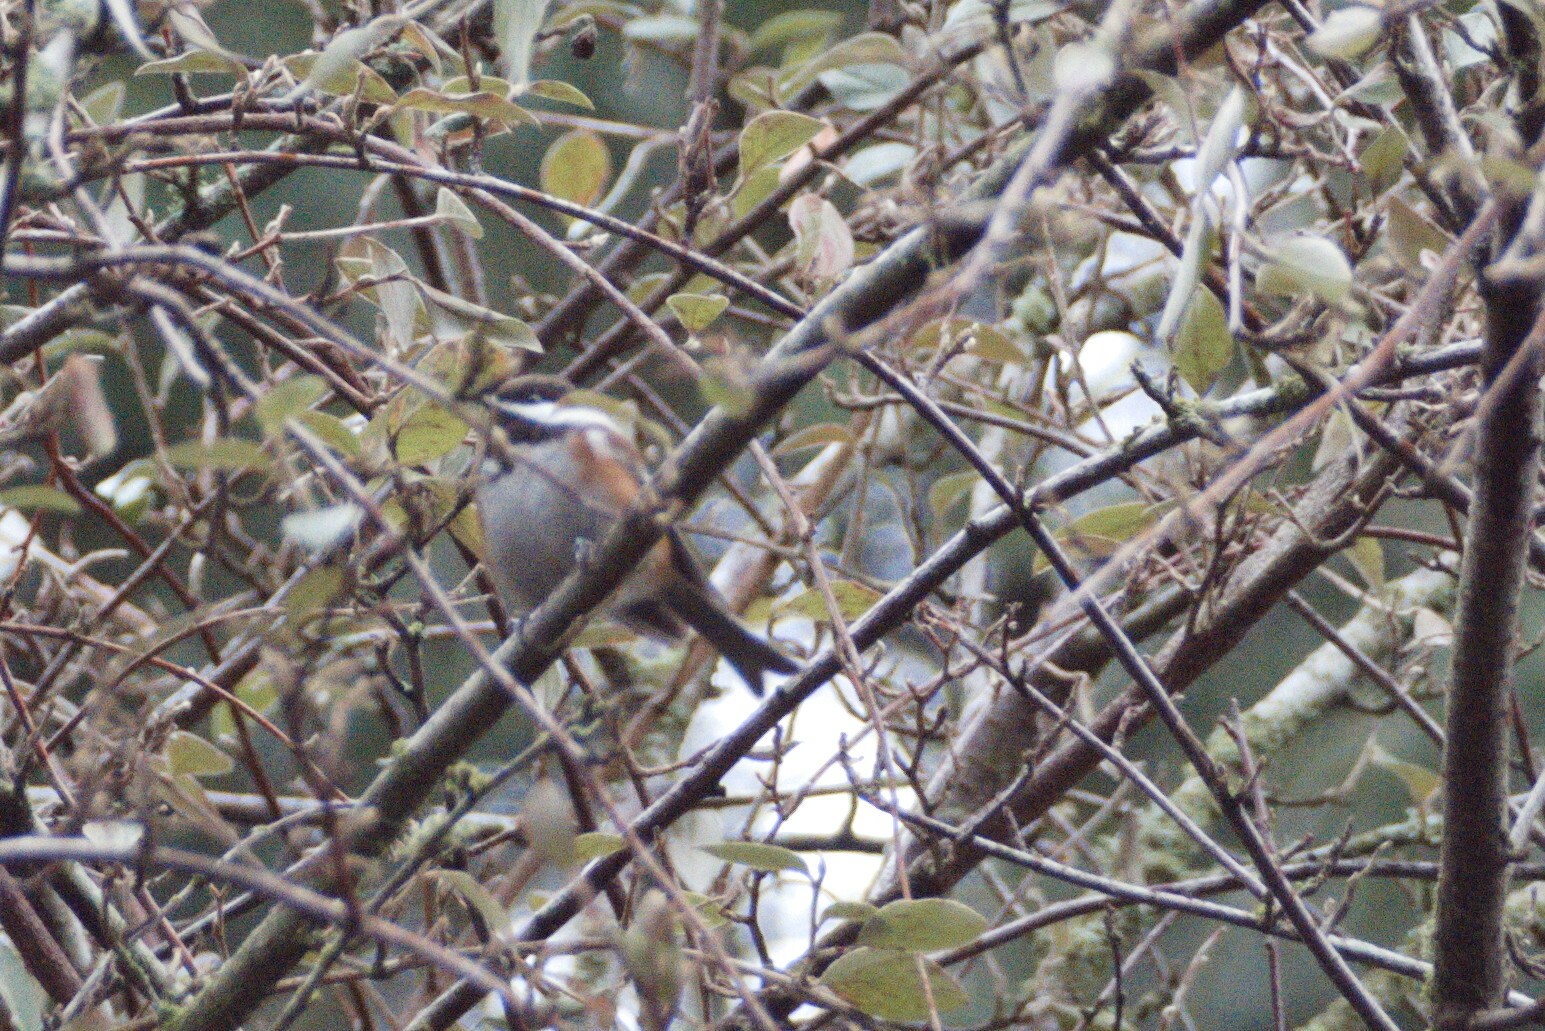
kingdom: Animalia
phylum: Chordata
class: Aves
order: Passeriformes
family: Paridae
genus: Poecile
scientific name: Poecile rufescens
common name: Chestnut-backed chickadee
